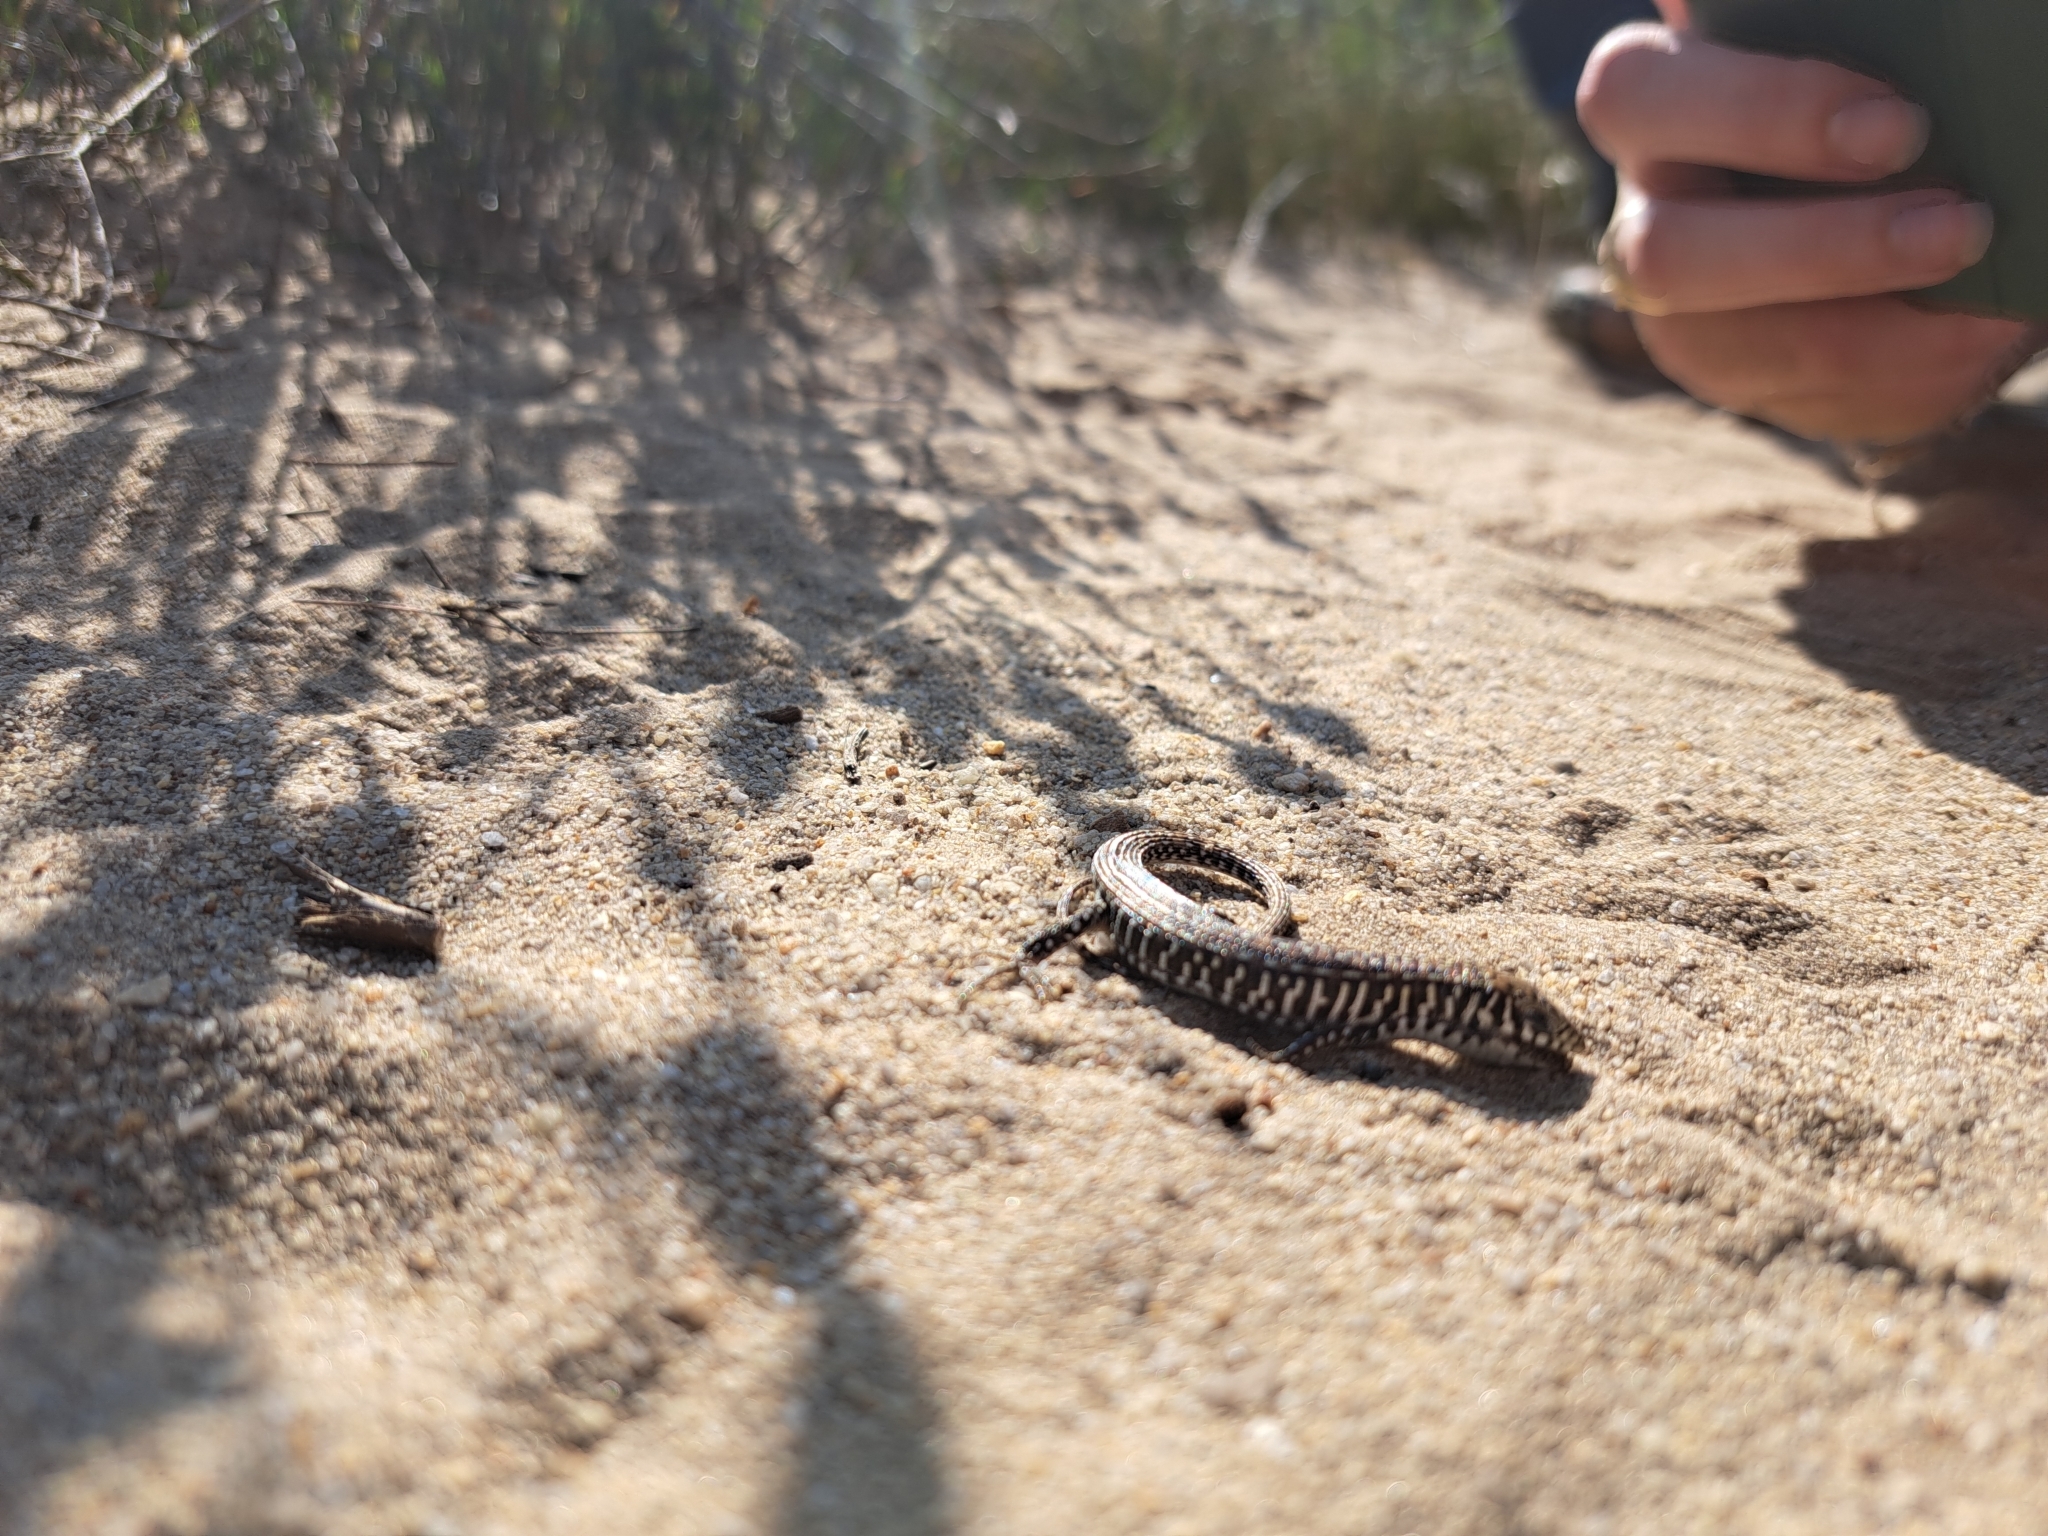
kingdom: Animalia
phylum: Chordata
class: Squamata
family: Gerrhosauridae
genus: Gerrhosaurus
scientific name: Gerrhosaurus flavigularis
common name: Yellow-throated plated lizard
